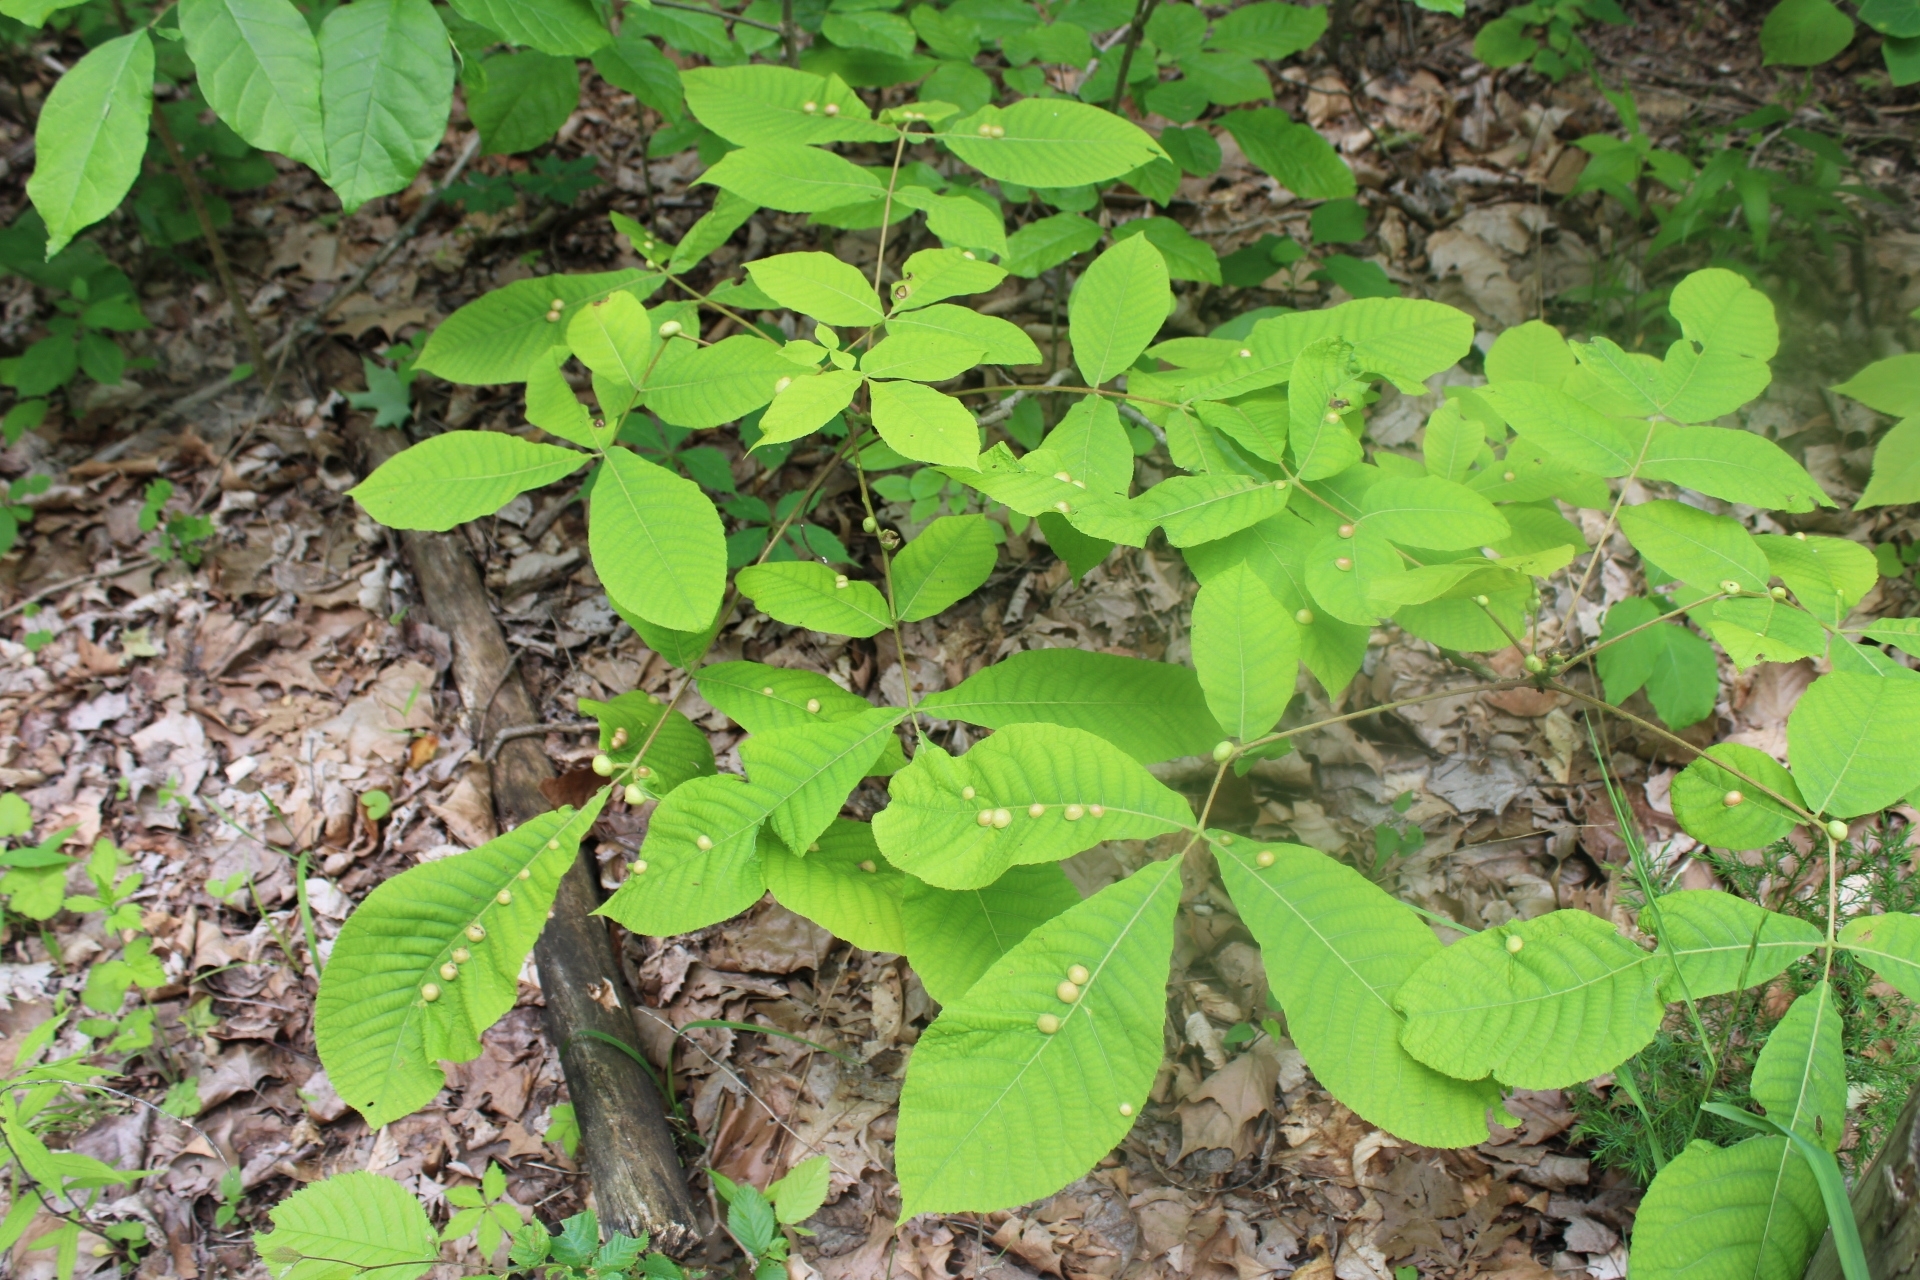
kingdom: Animalia
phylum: Arthropoda
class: Insecta
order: Hemiptera
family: Phylloxeridae
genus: Phylloxera
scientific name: Phylloxera caryae-globuli
